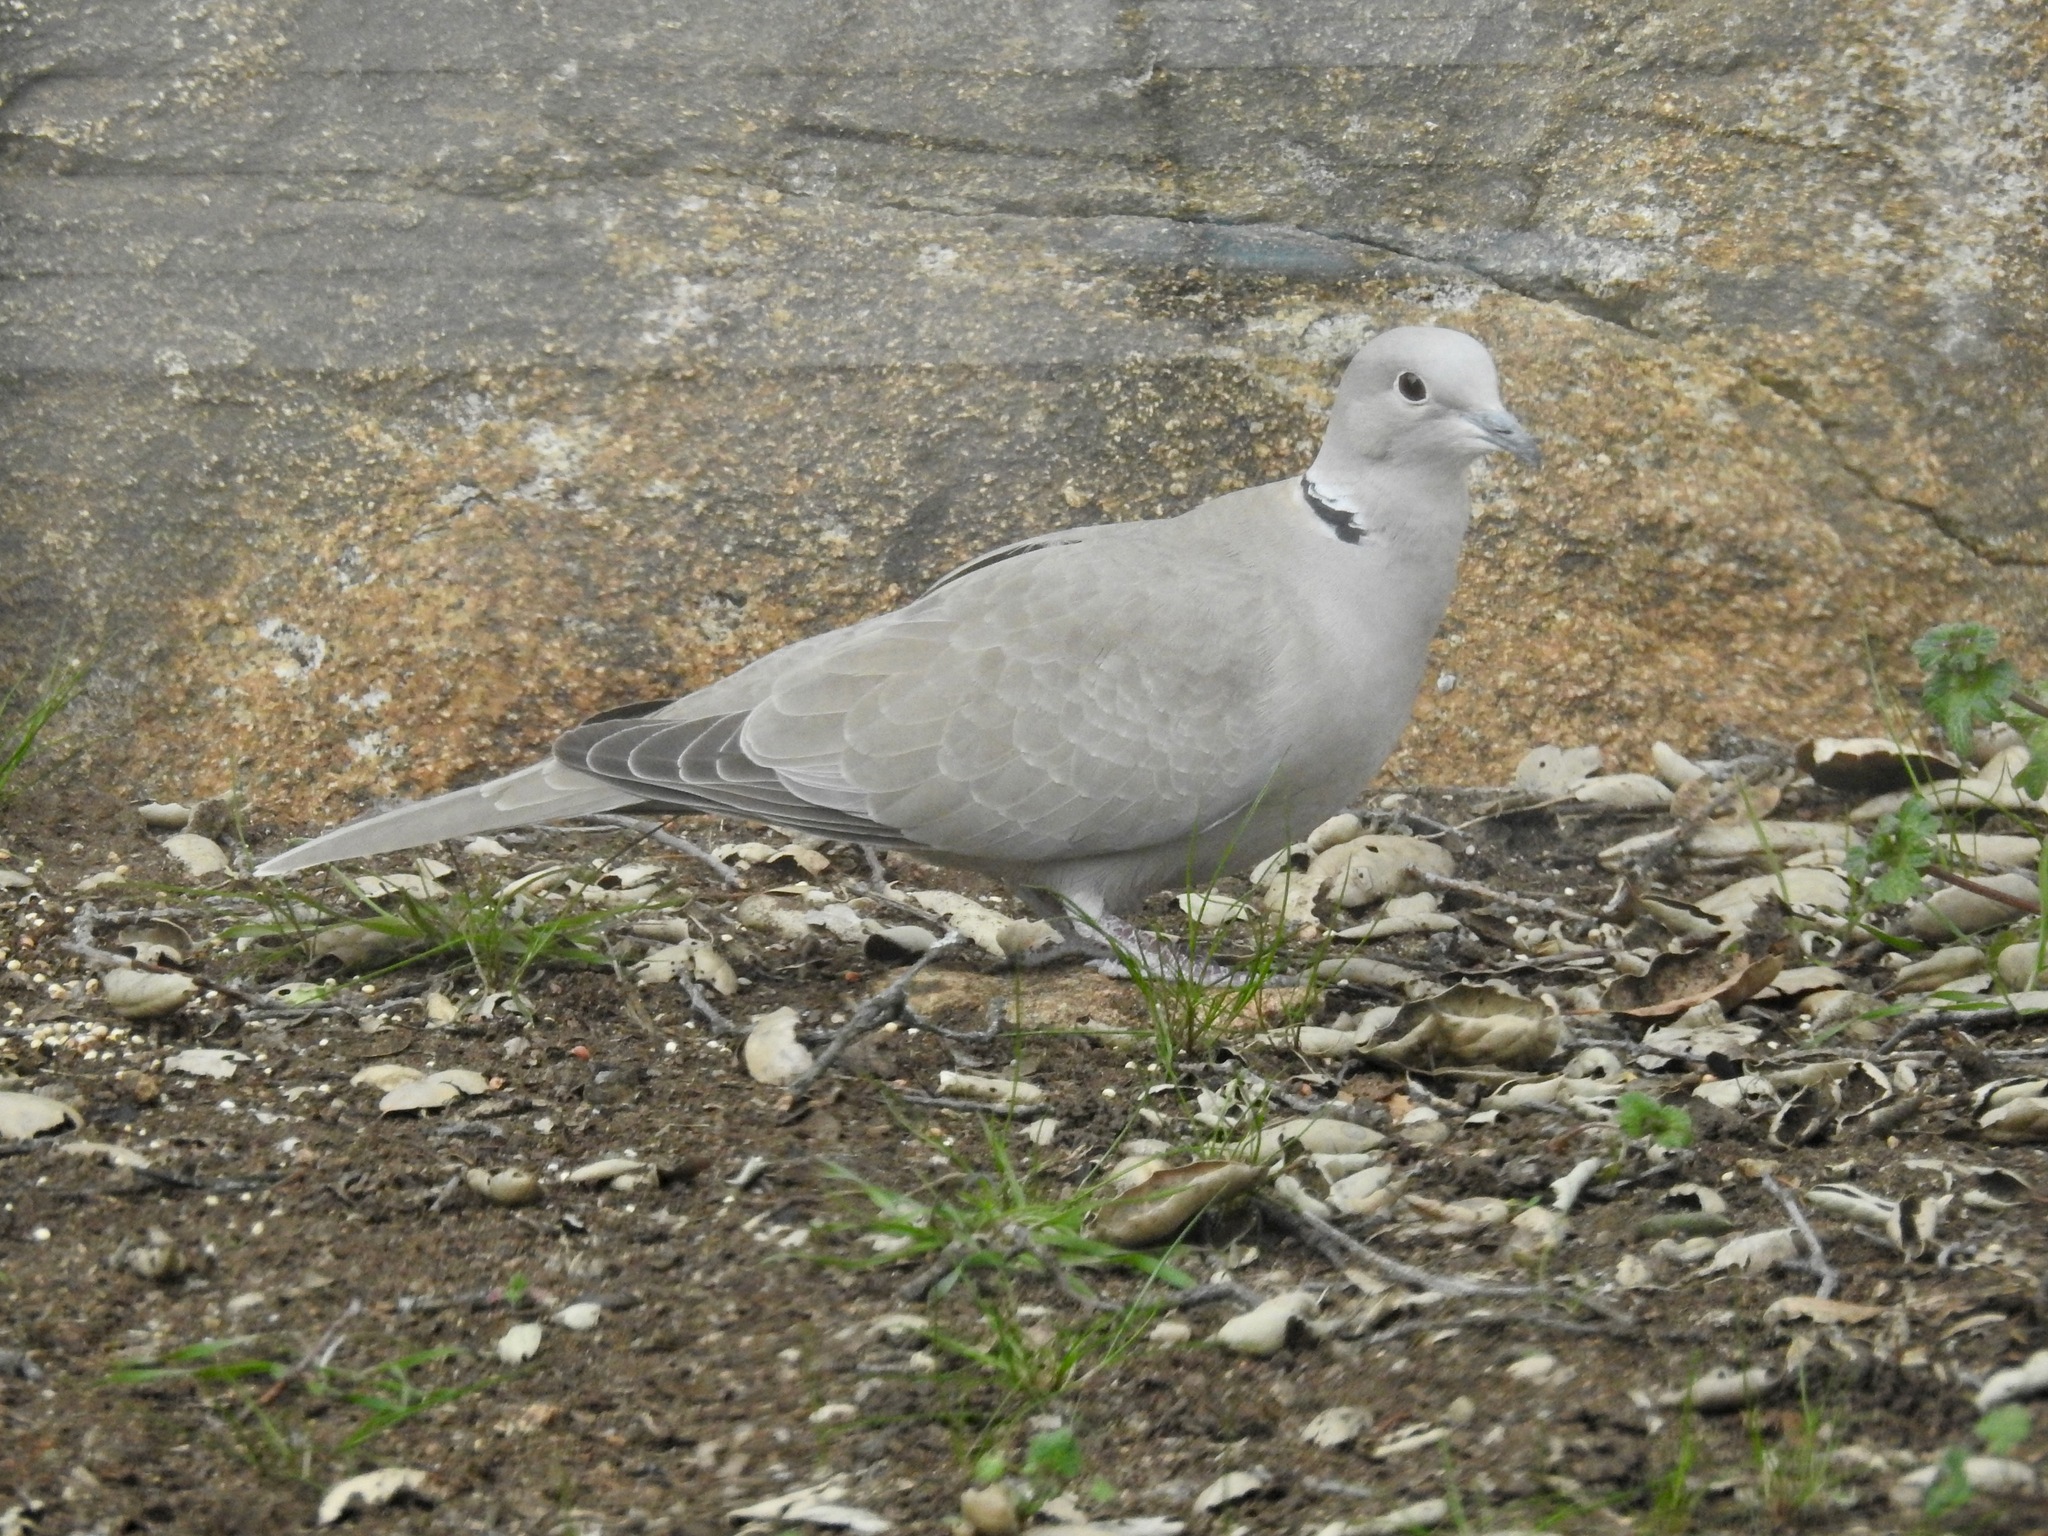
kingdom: Animalia
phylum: Chordata
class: Aves
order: Columbiformes
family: Columbidae
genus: Streptopelia
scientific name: Streptopelia decaocto
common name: Eurasian collared dove
